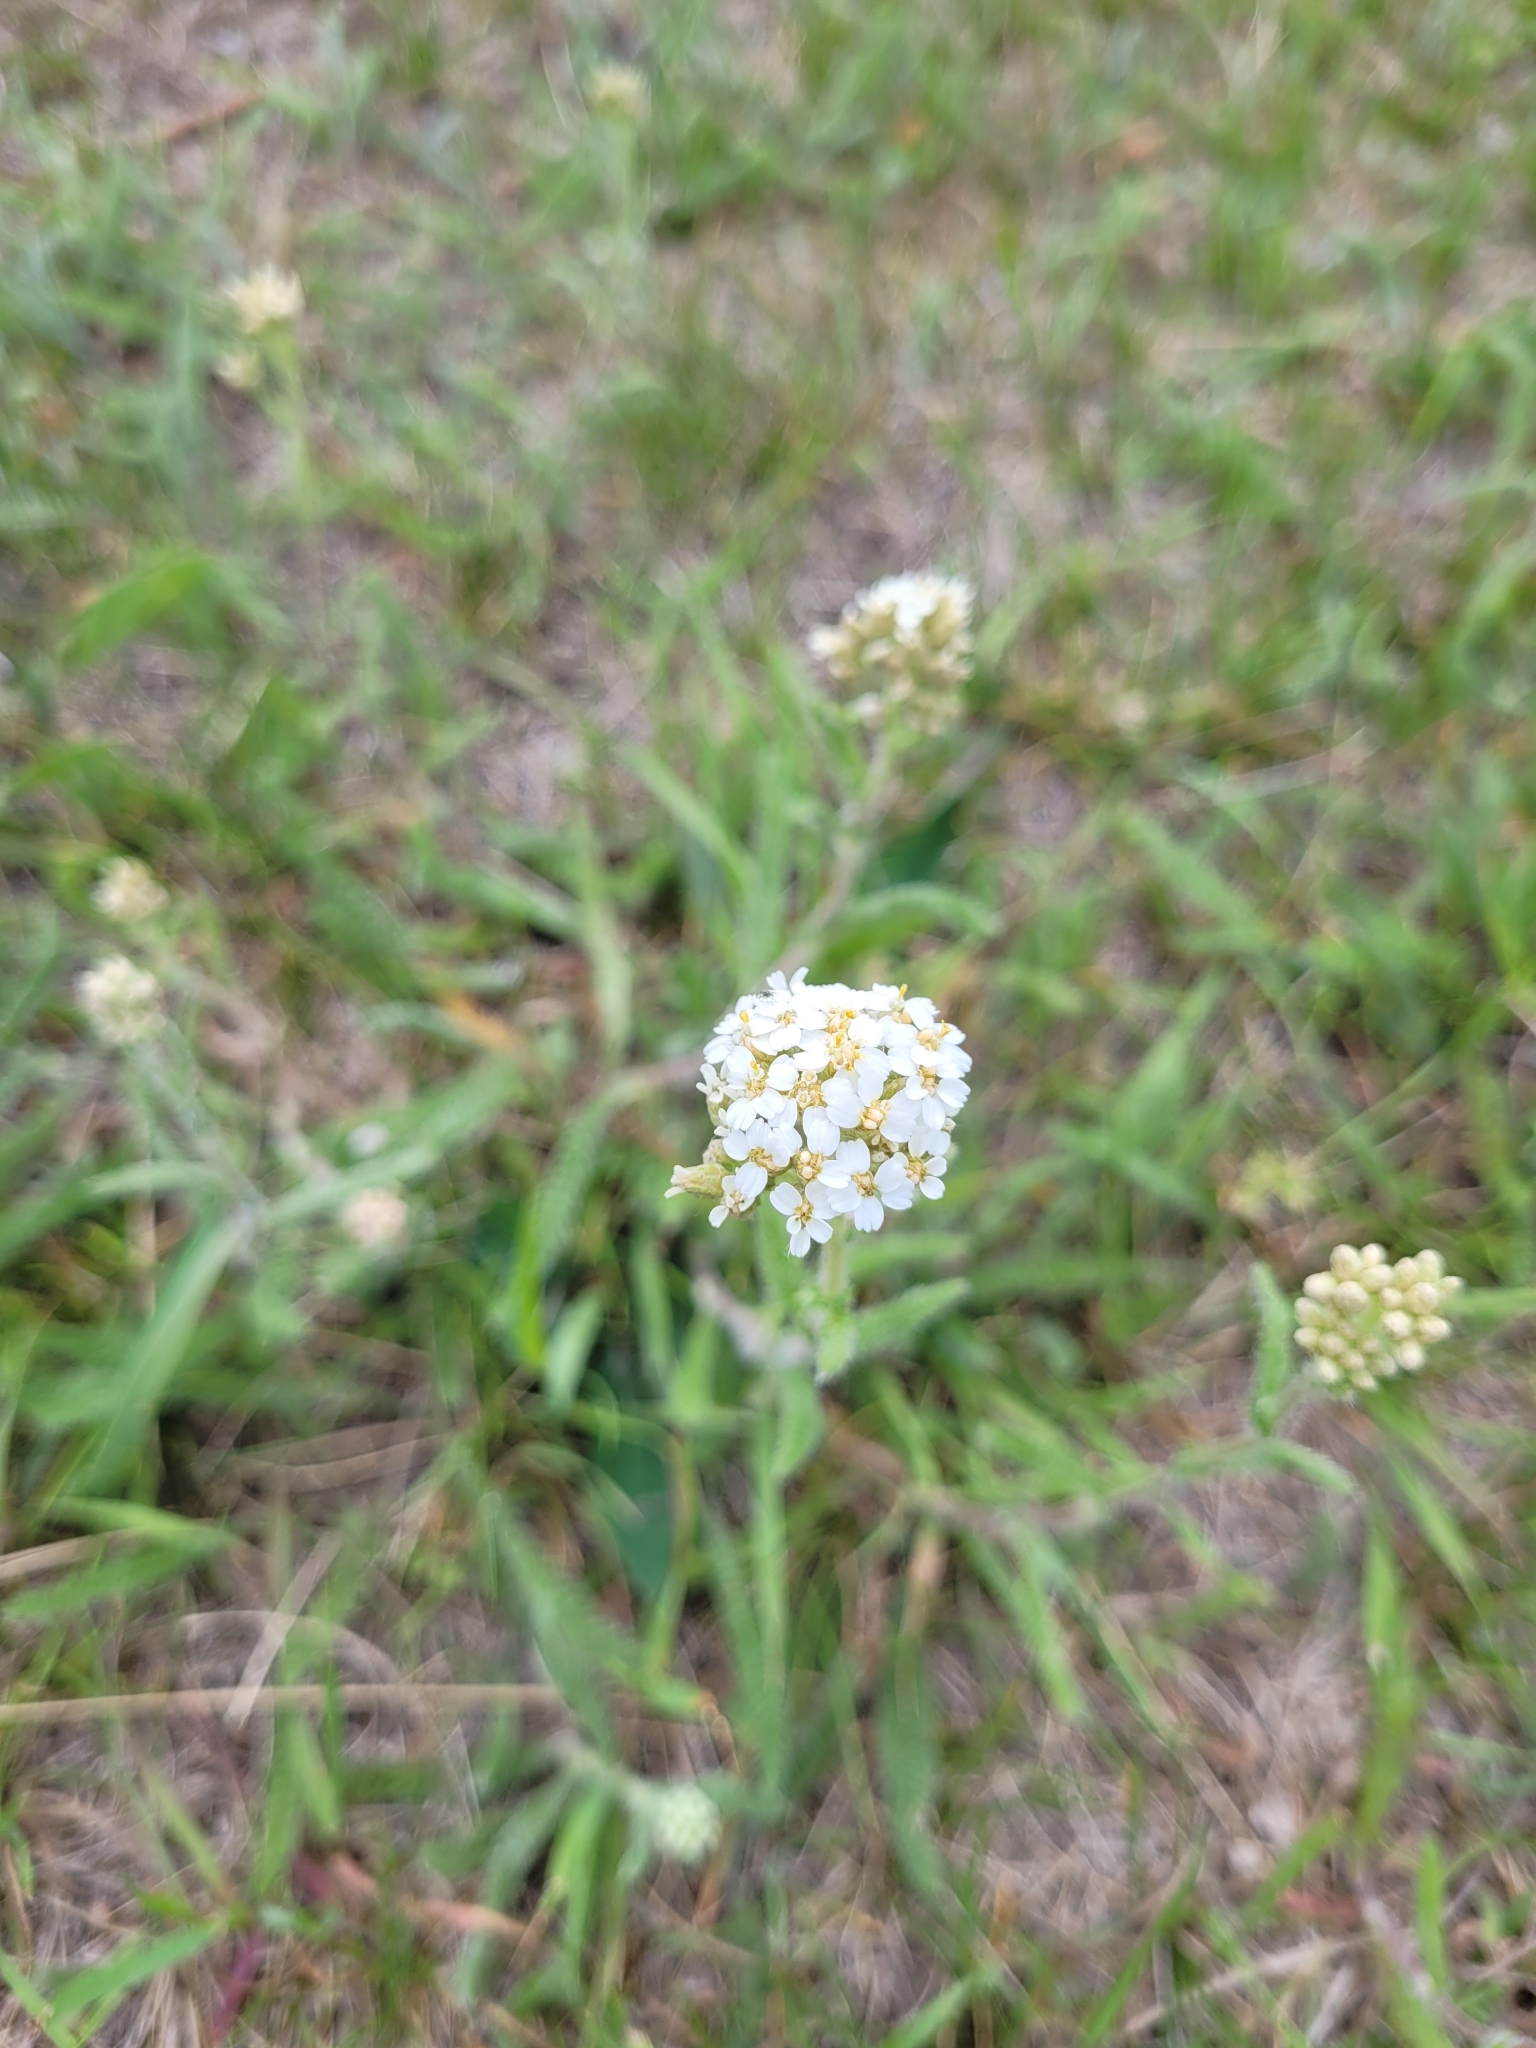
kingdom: Plantae
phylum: Tracheophyta
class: Magnoliopsida
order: Asterales
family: Asteraceae
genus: Achillea
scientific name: Achillea millefolium
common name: Yarrow
